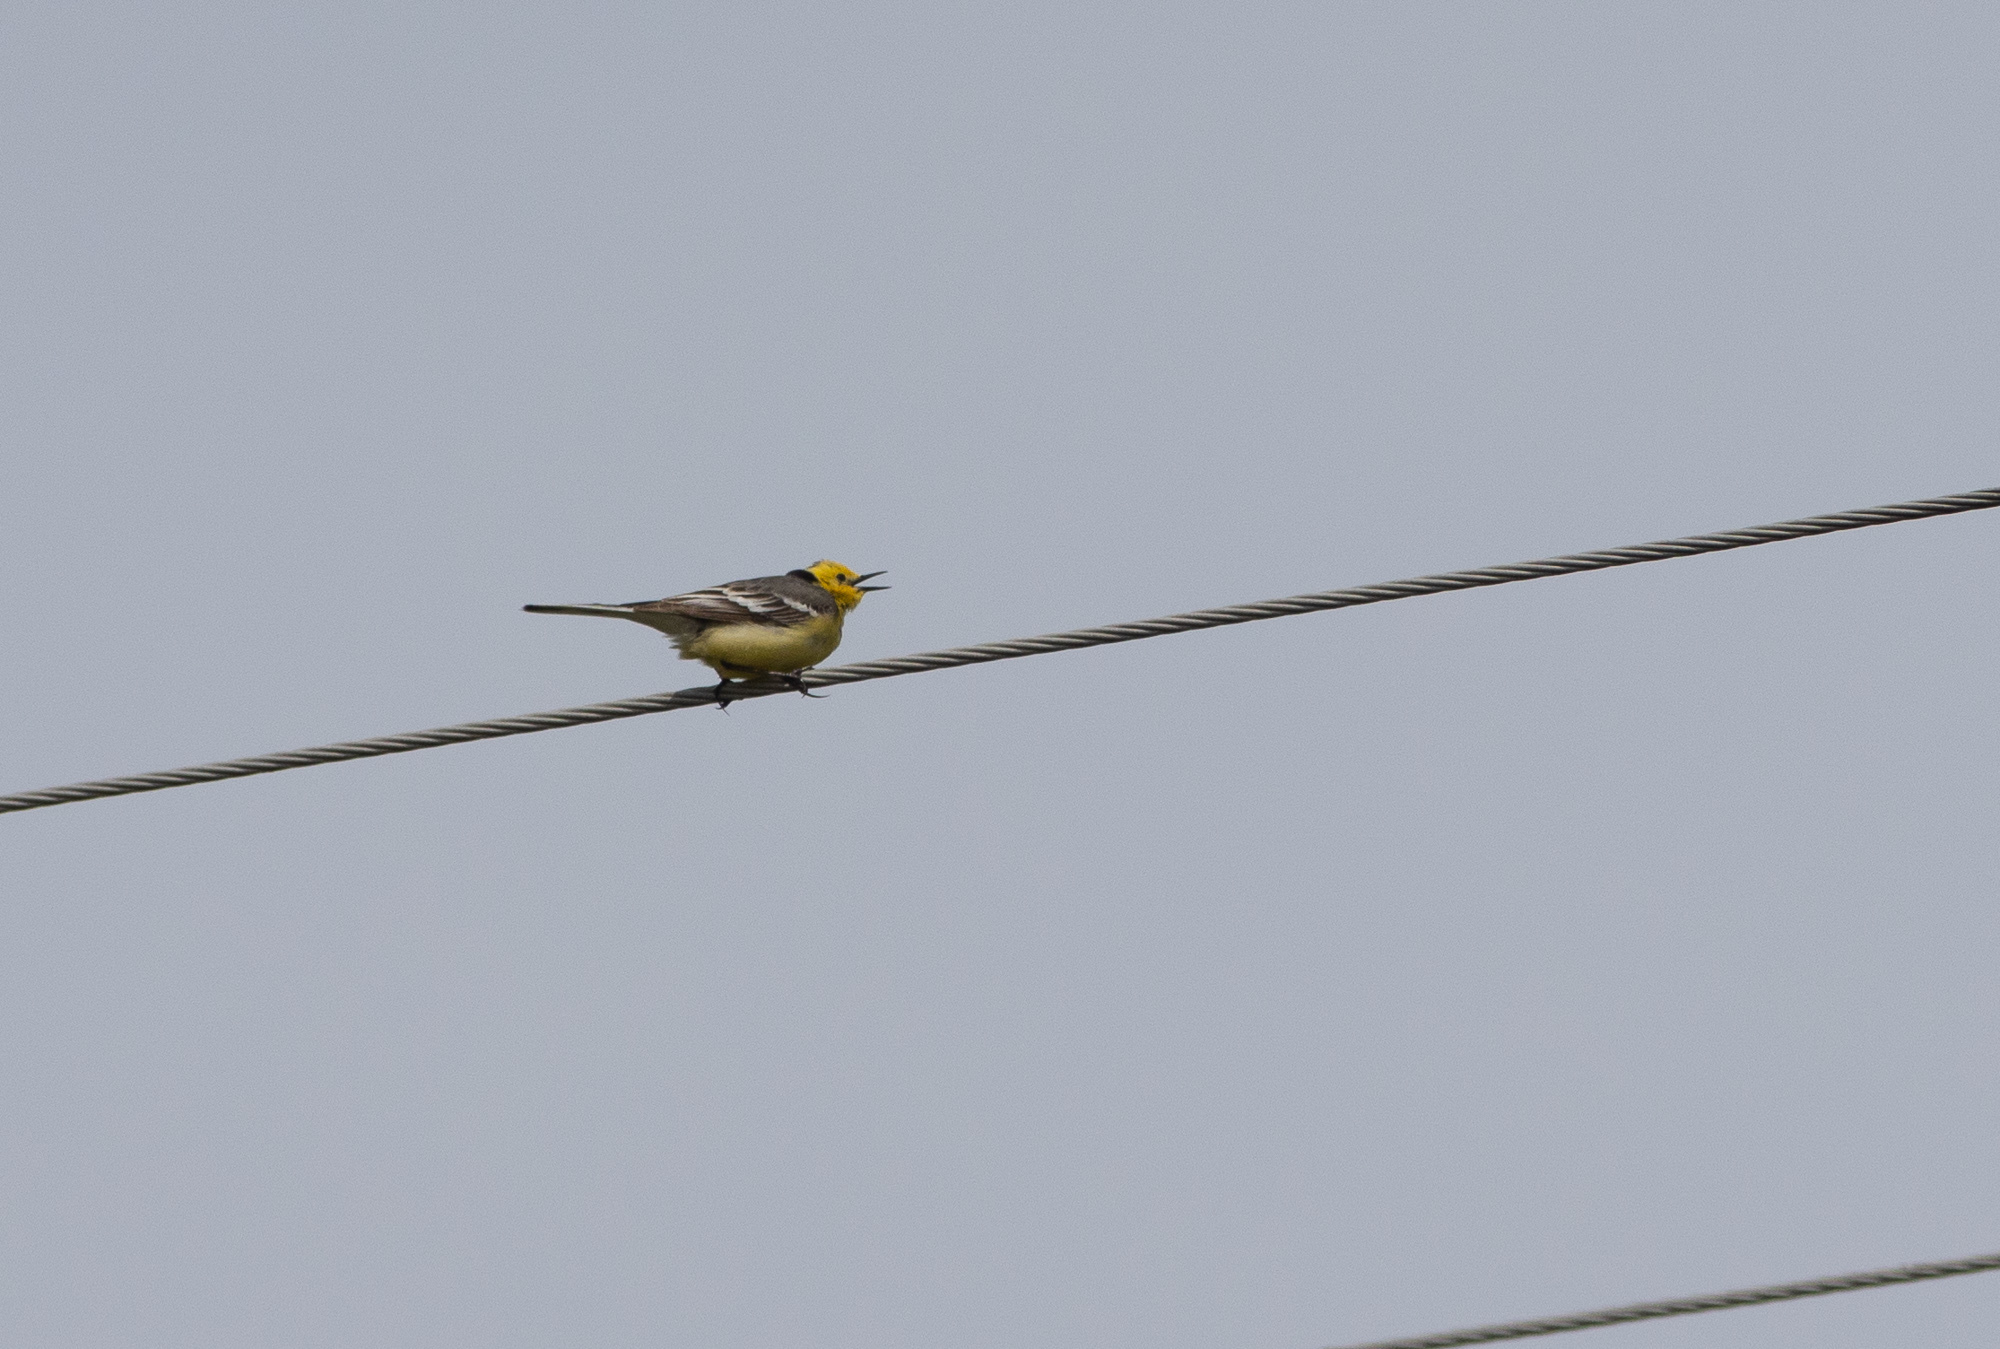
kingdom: Animalia
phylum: Chordata
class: Aves
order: Passeriformes
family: Motacillidae
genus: Motacilla
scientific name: Motacilla citreola
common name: Citrine wagtail
